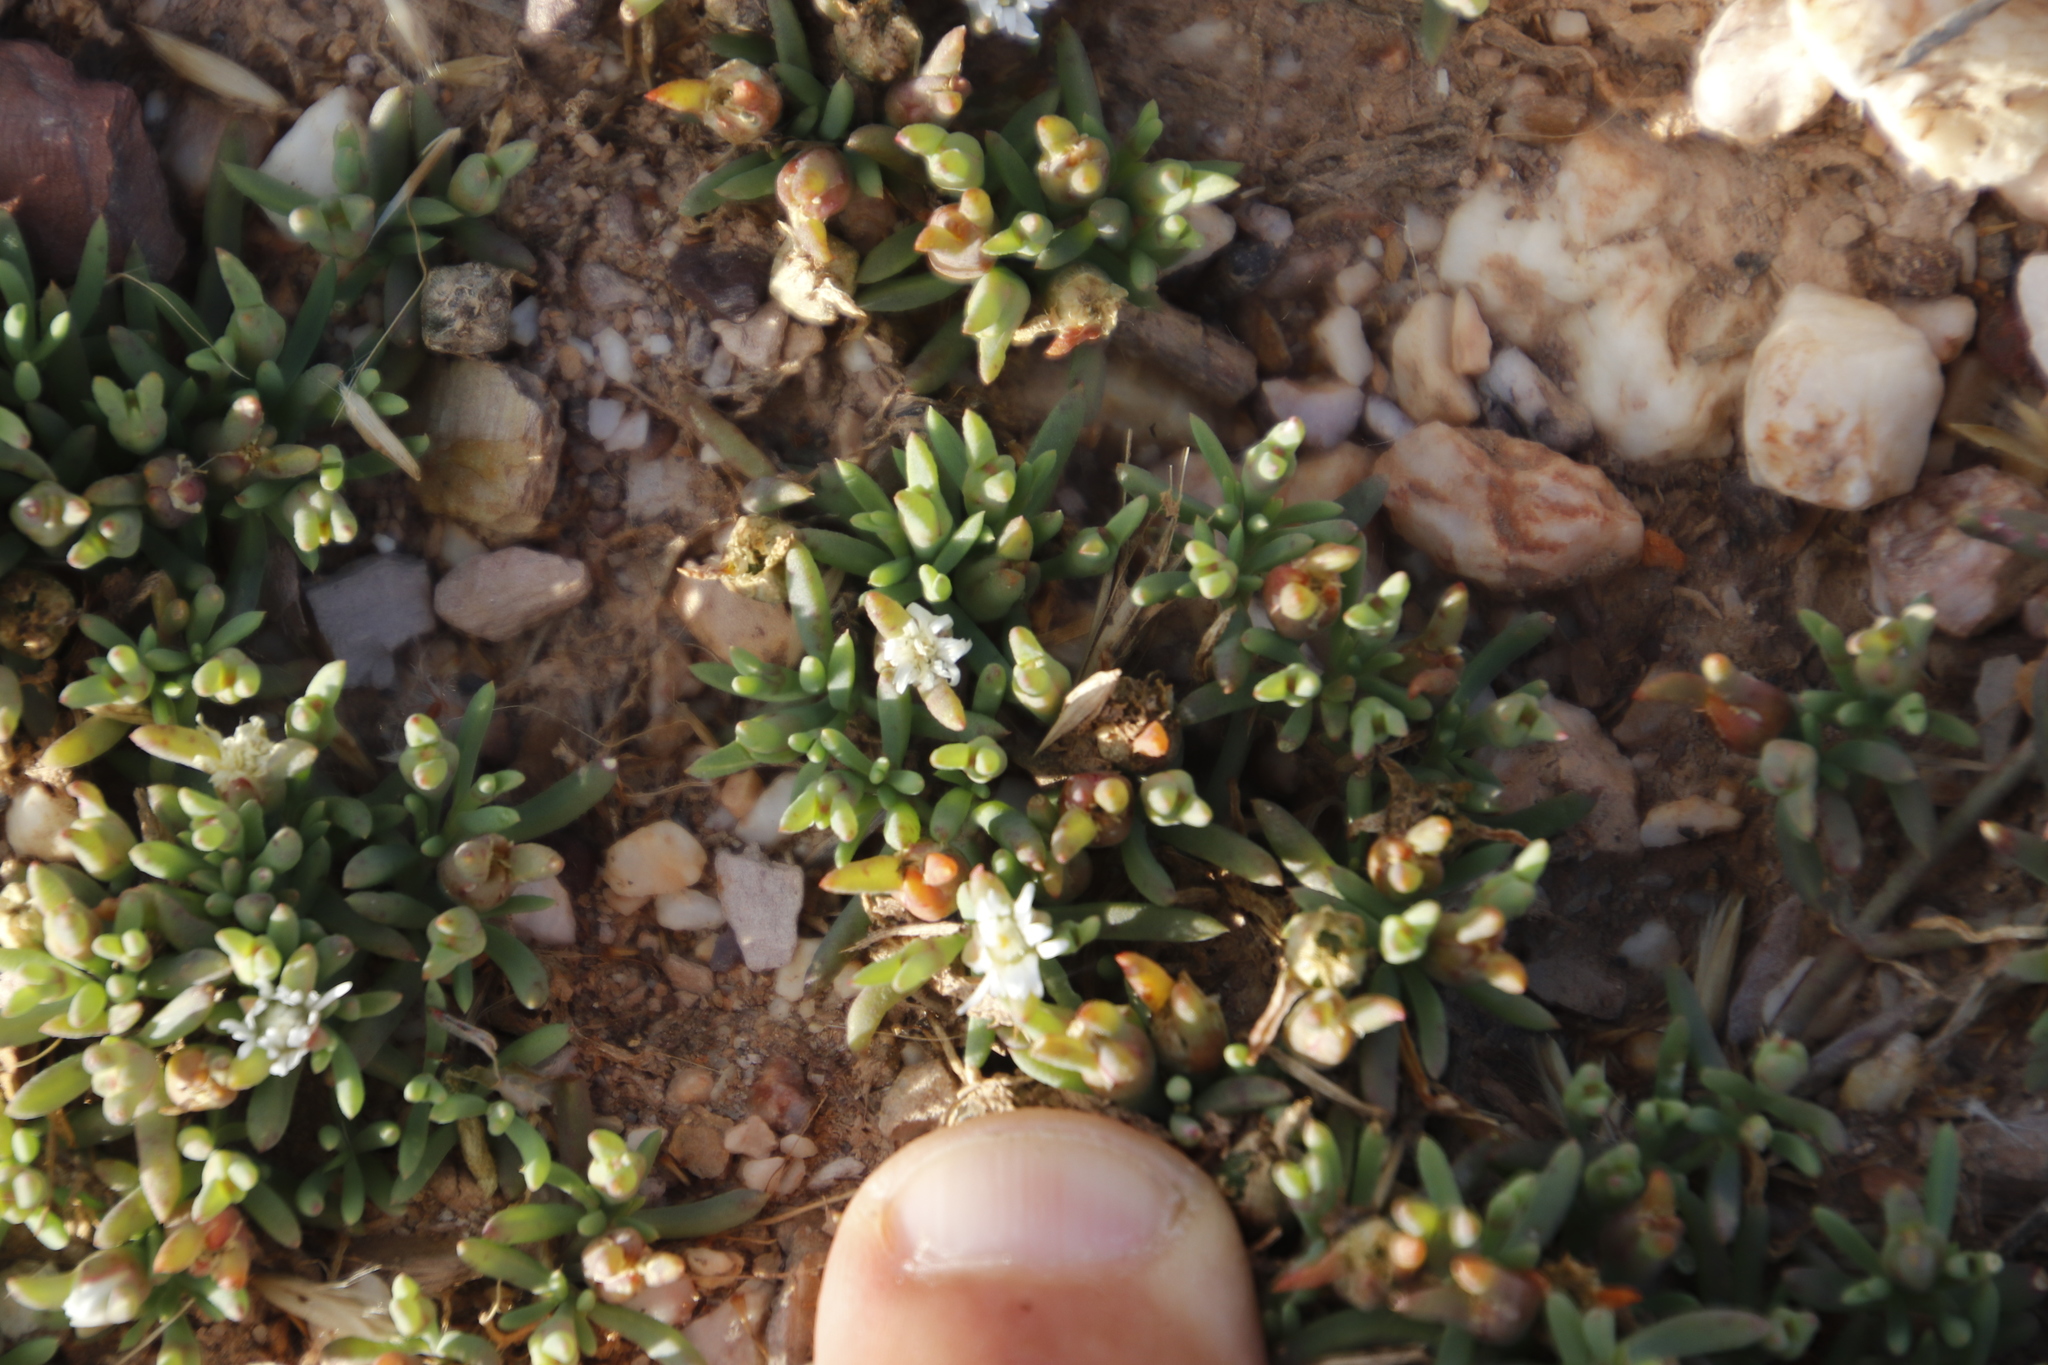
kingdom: Plantae
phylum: Tracheophyta
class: Magnoliopsida
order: Caryophyllales
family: Aizoaceae
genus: Mesembryanthemum
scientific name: Mesembryanthemum parviflorum
